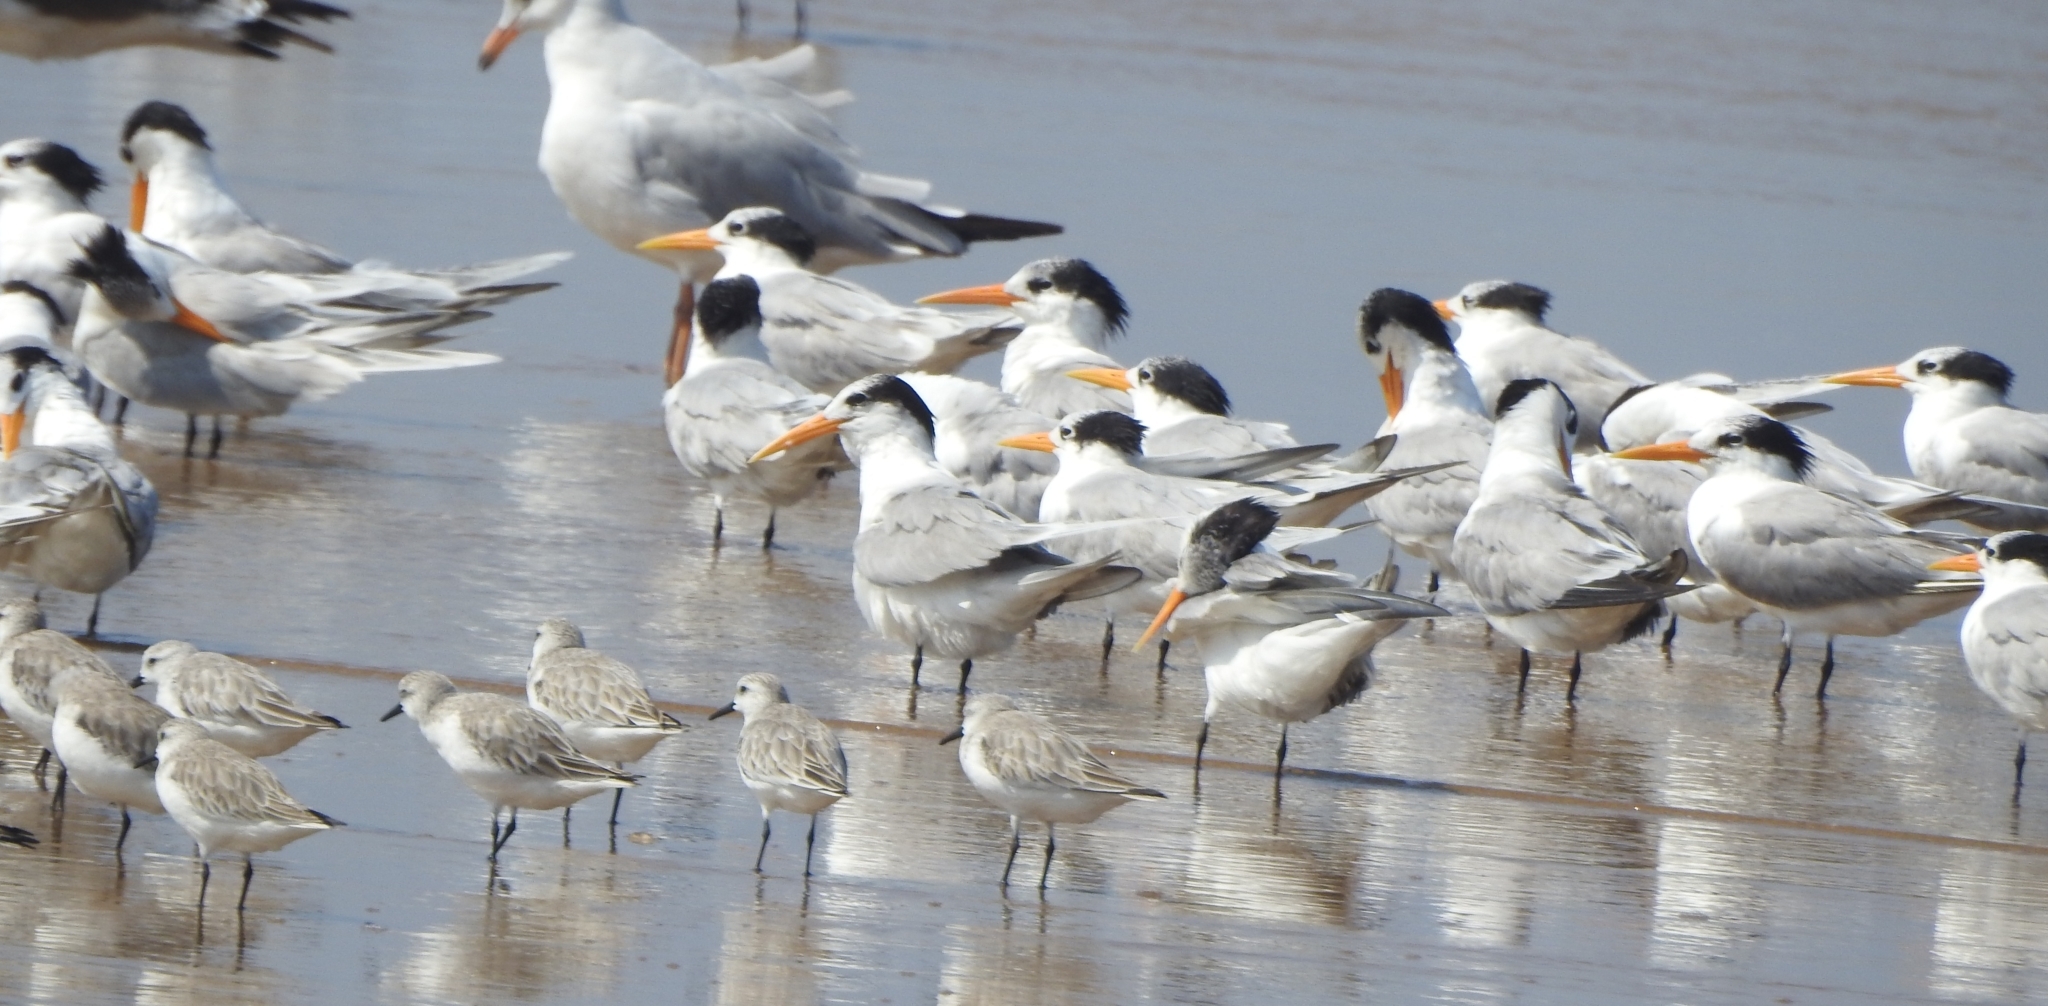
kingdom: Animalia
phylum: Chordata
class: Aves
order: Charadriiformes
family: Laridae
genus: Thalasseus
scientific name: Thalasseus bengalensis
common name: Lesser crested tern
